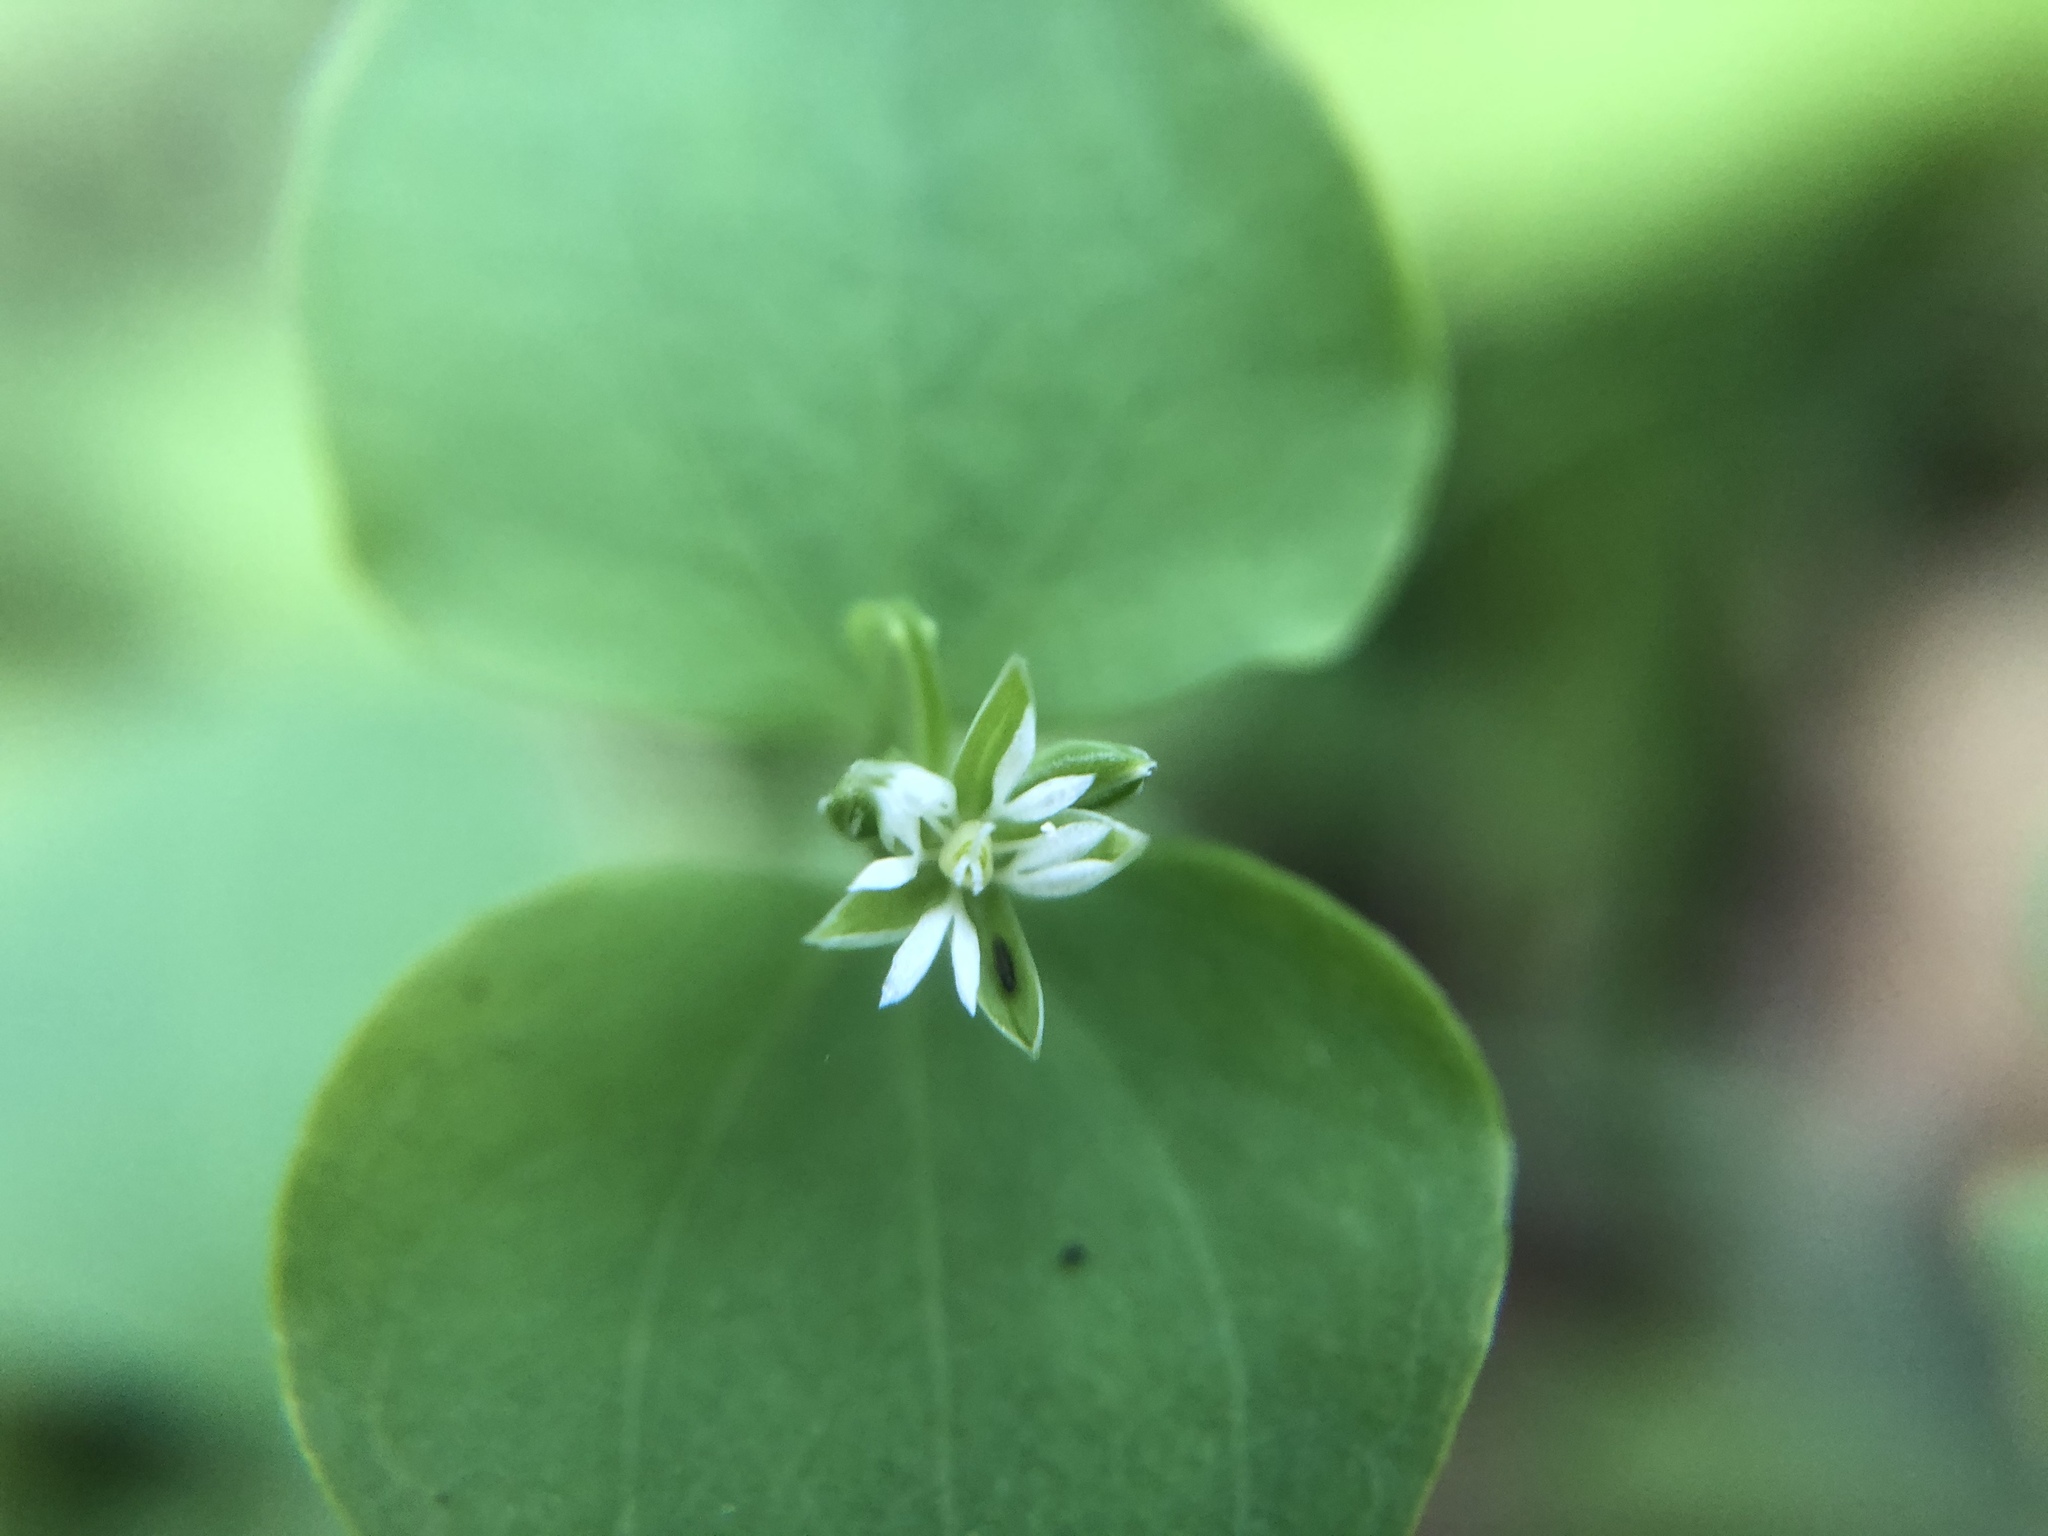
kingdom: Plantae
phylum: Tracheophyta
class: Magnoliopsida
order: Caryophyllales
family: Caryophyllaceae
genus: Drymaria
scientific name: Drymaria cordata
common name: Whitesnow
